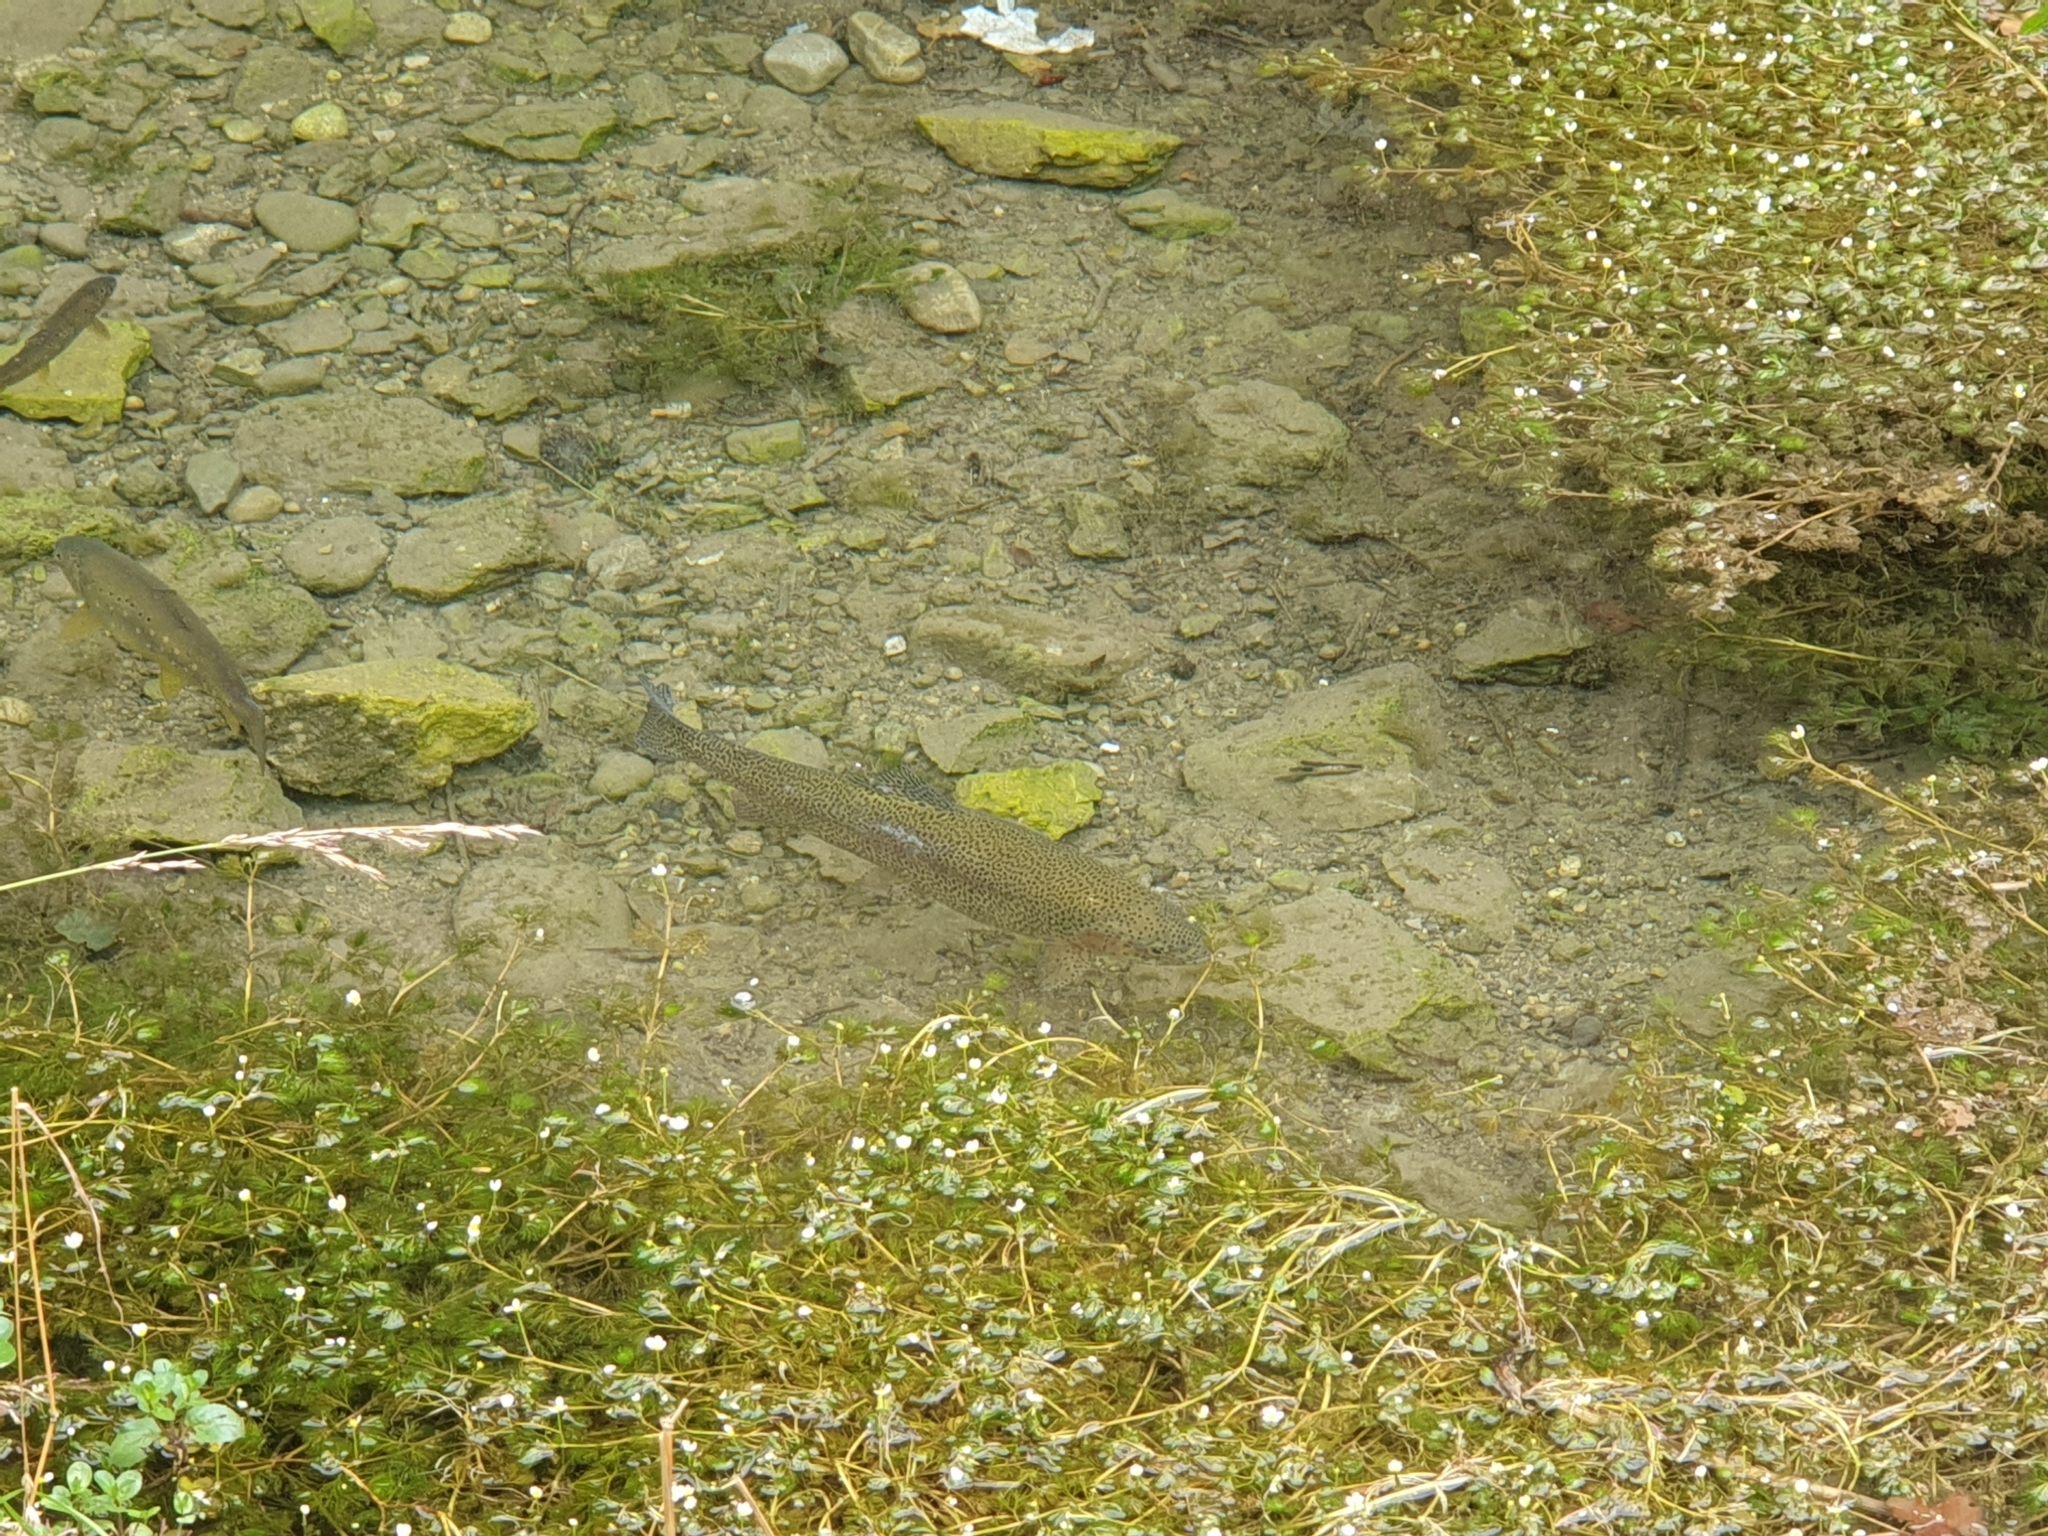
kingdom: Animalia
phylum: Chordata
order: Salmoniformes
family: Salmonidae
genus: Oncorhynchus
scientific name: Oncorhynchus mykiss
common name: Rainbow trout
